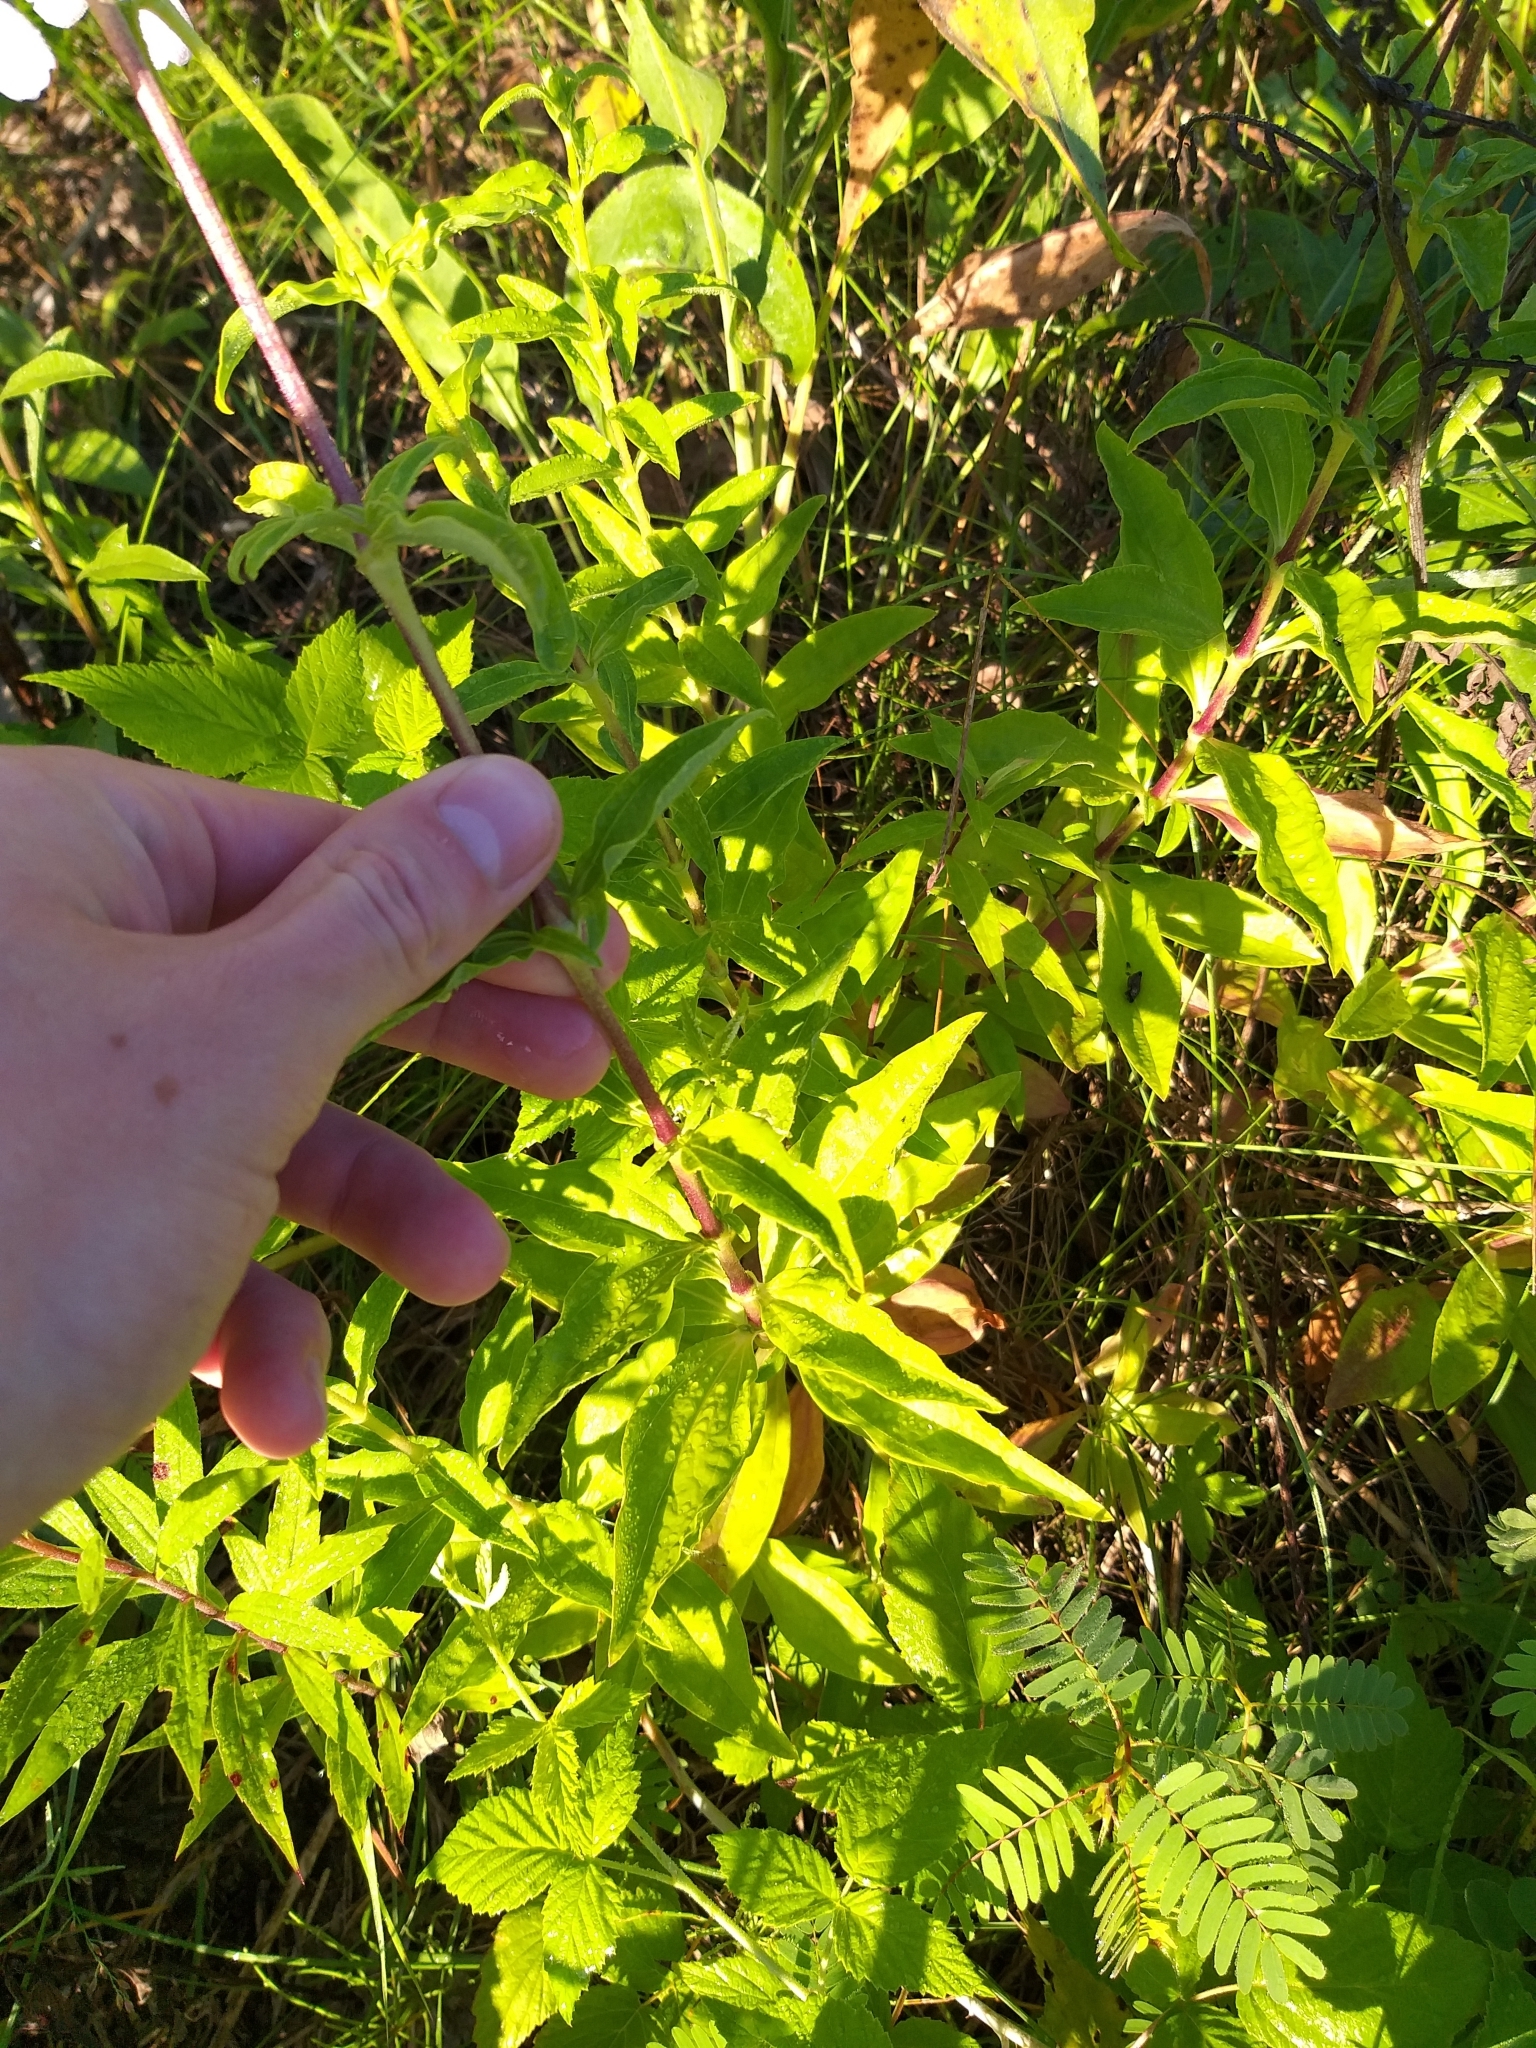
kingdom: Plantae
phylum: Tracheophyta
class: Magnoliopsida
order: Caryophyllales
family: Caryophyllaceae
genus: Saponaria
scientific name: Saponaria officinalis
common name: Soapwort
